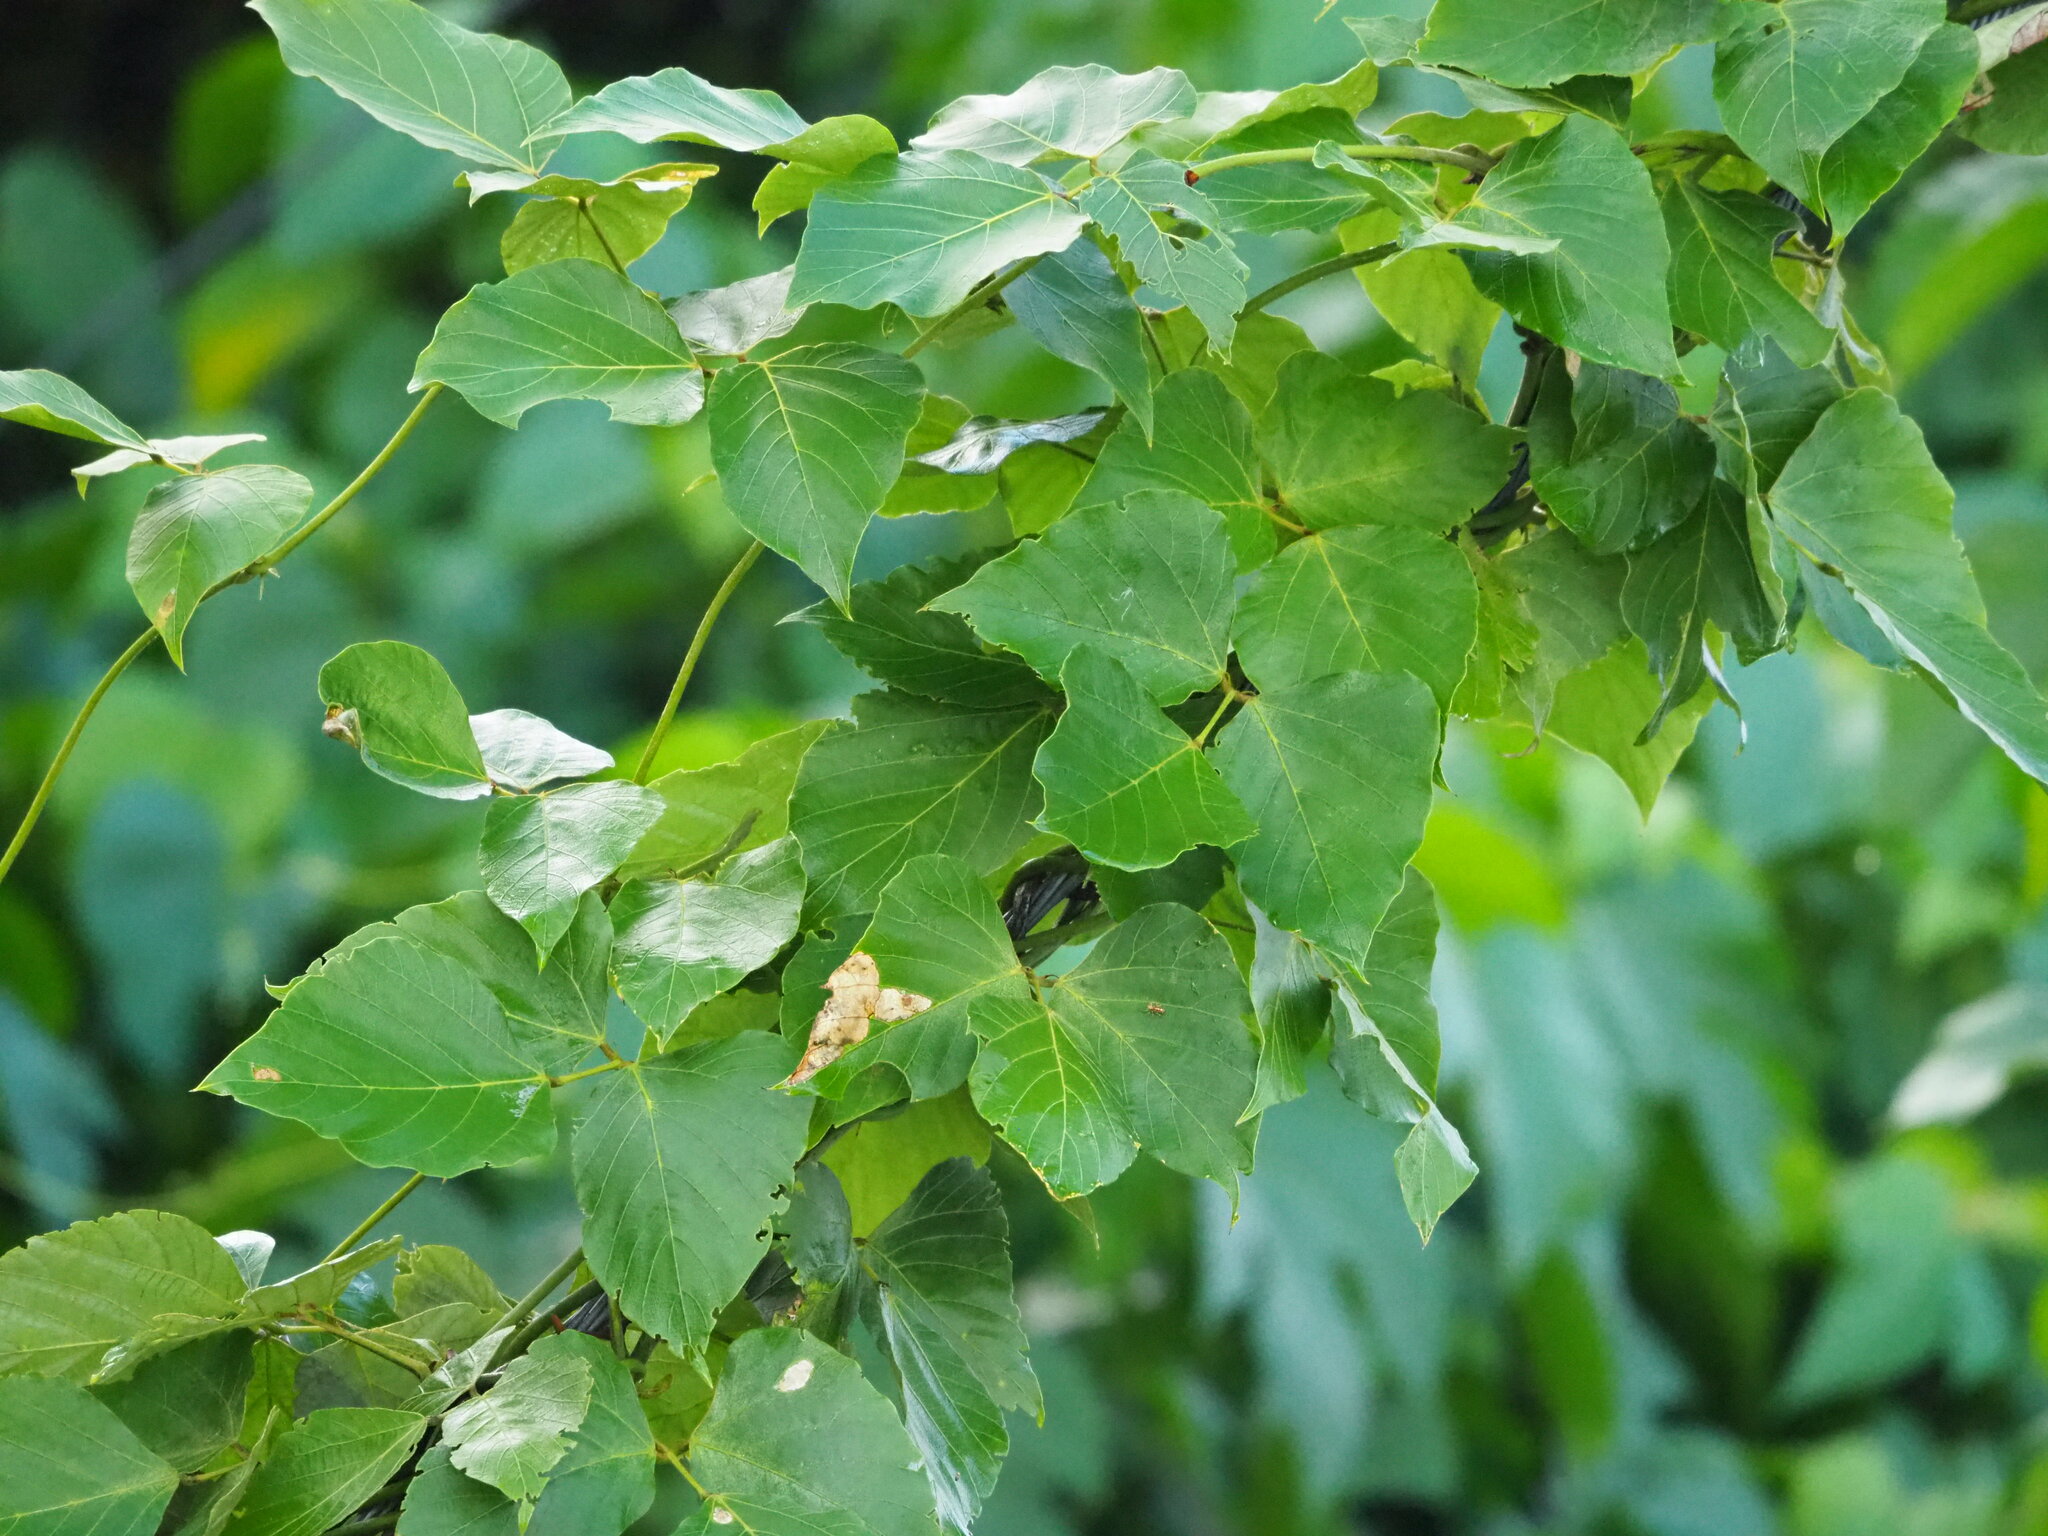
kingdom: Plantae
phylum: Tracheophyta
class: Magnoliopsida
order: Fabales
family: Fabaceae
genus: Pueraria
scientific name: Pueraria montana
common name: Kudzu
